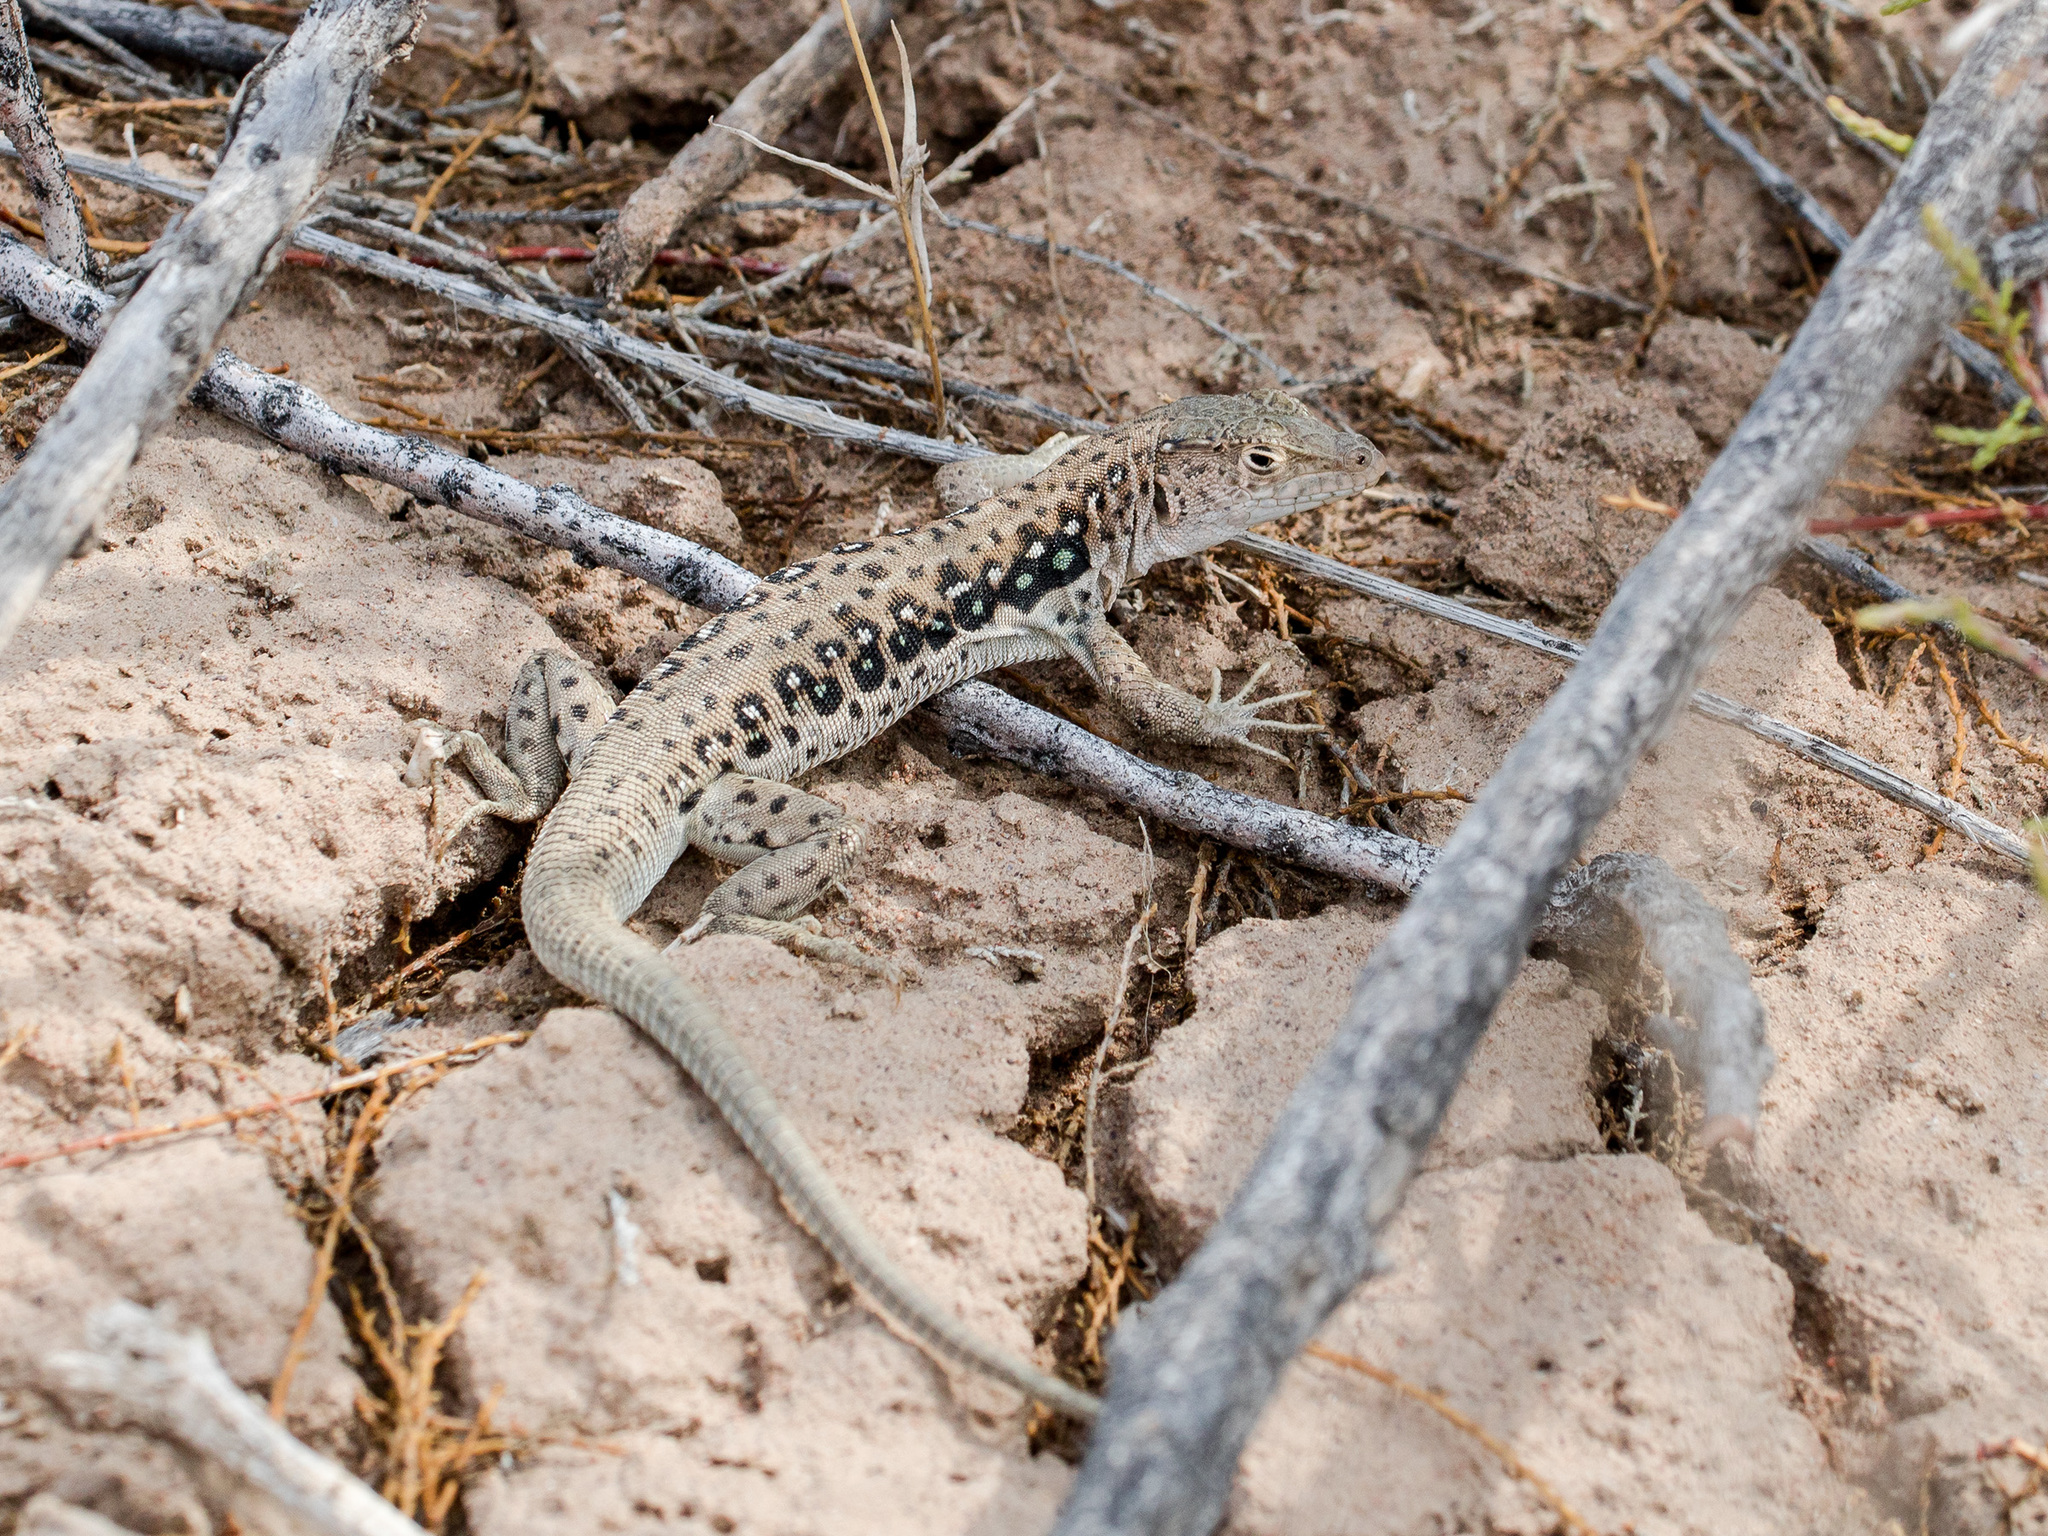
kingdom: Animalia
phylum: Chordata
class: Squamata
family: Lacertidae
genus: Eremias
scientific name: Eremias velox
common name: Central asian racerunner
